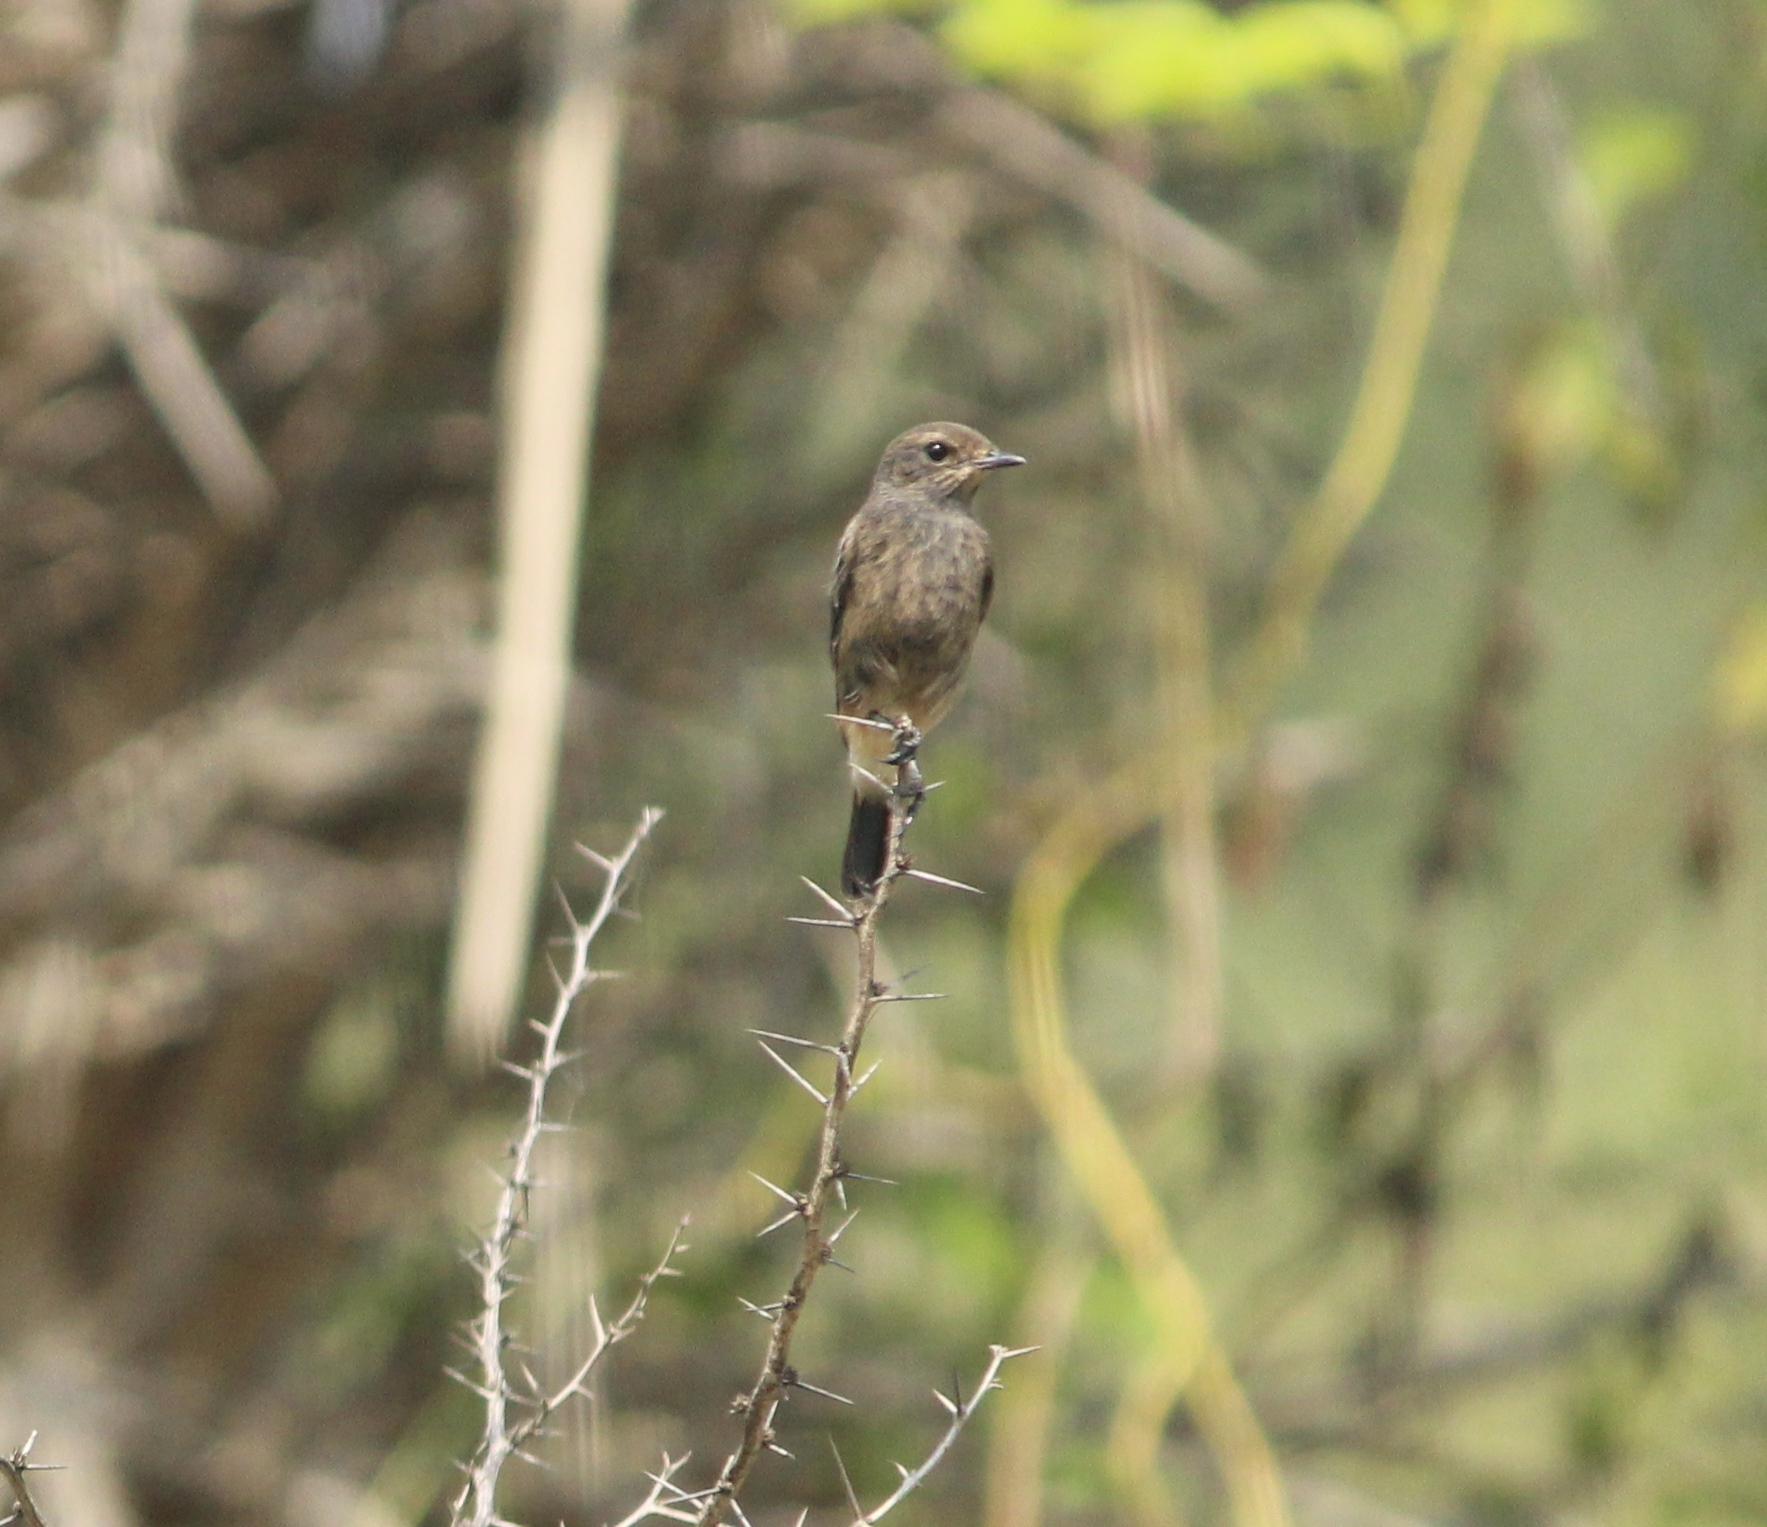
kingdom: Animalia
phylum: Chordata
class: Aves
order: Passeriformes
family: Muscicapidae
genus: Saxicola
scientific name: Saxicola caprata
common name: Pied bush chat
